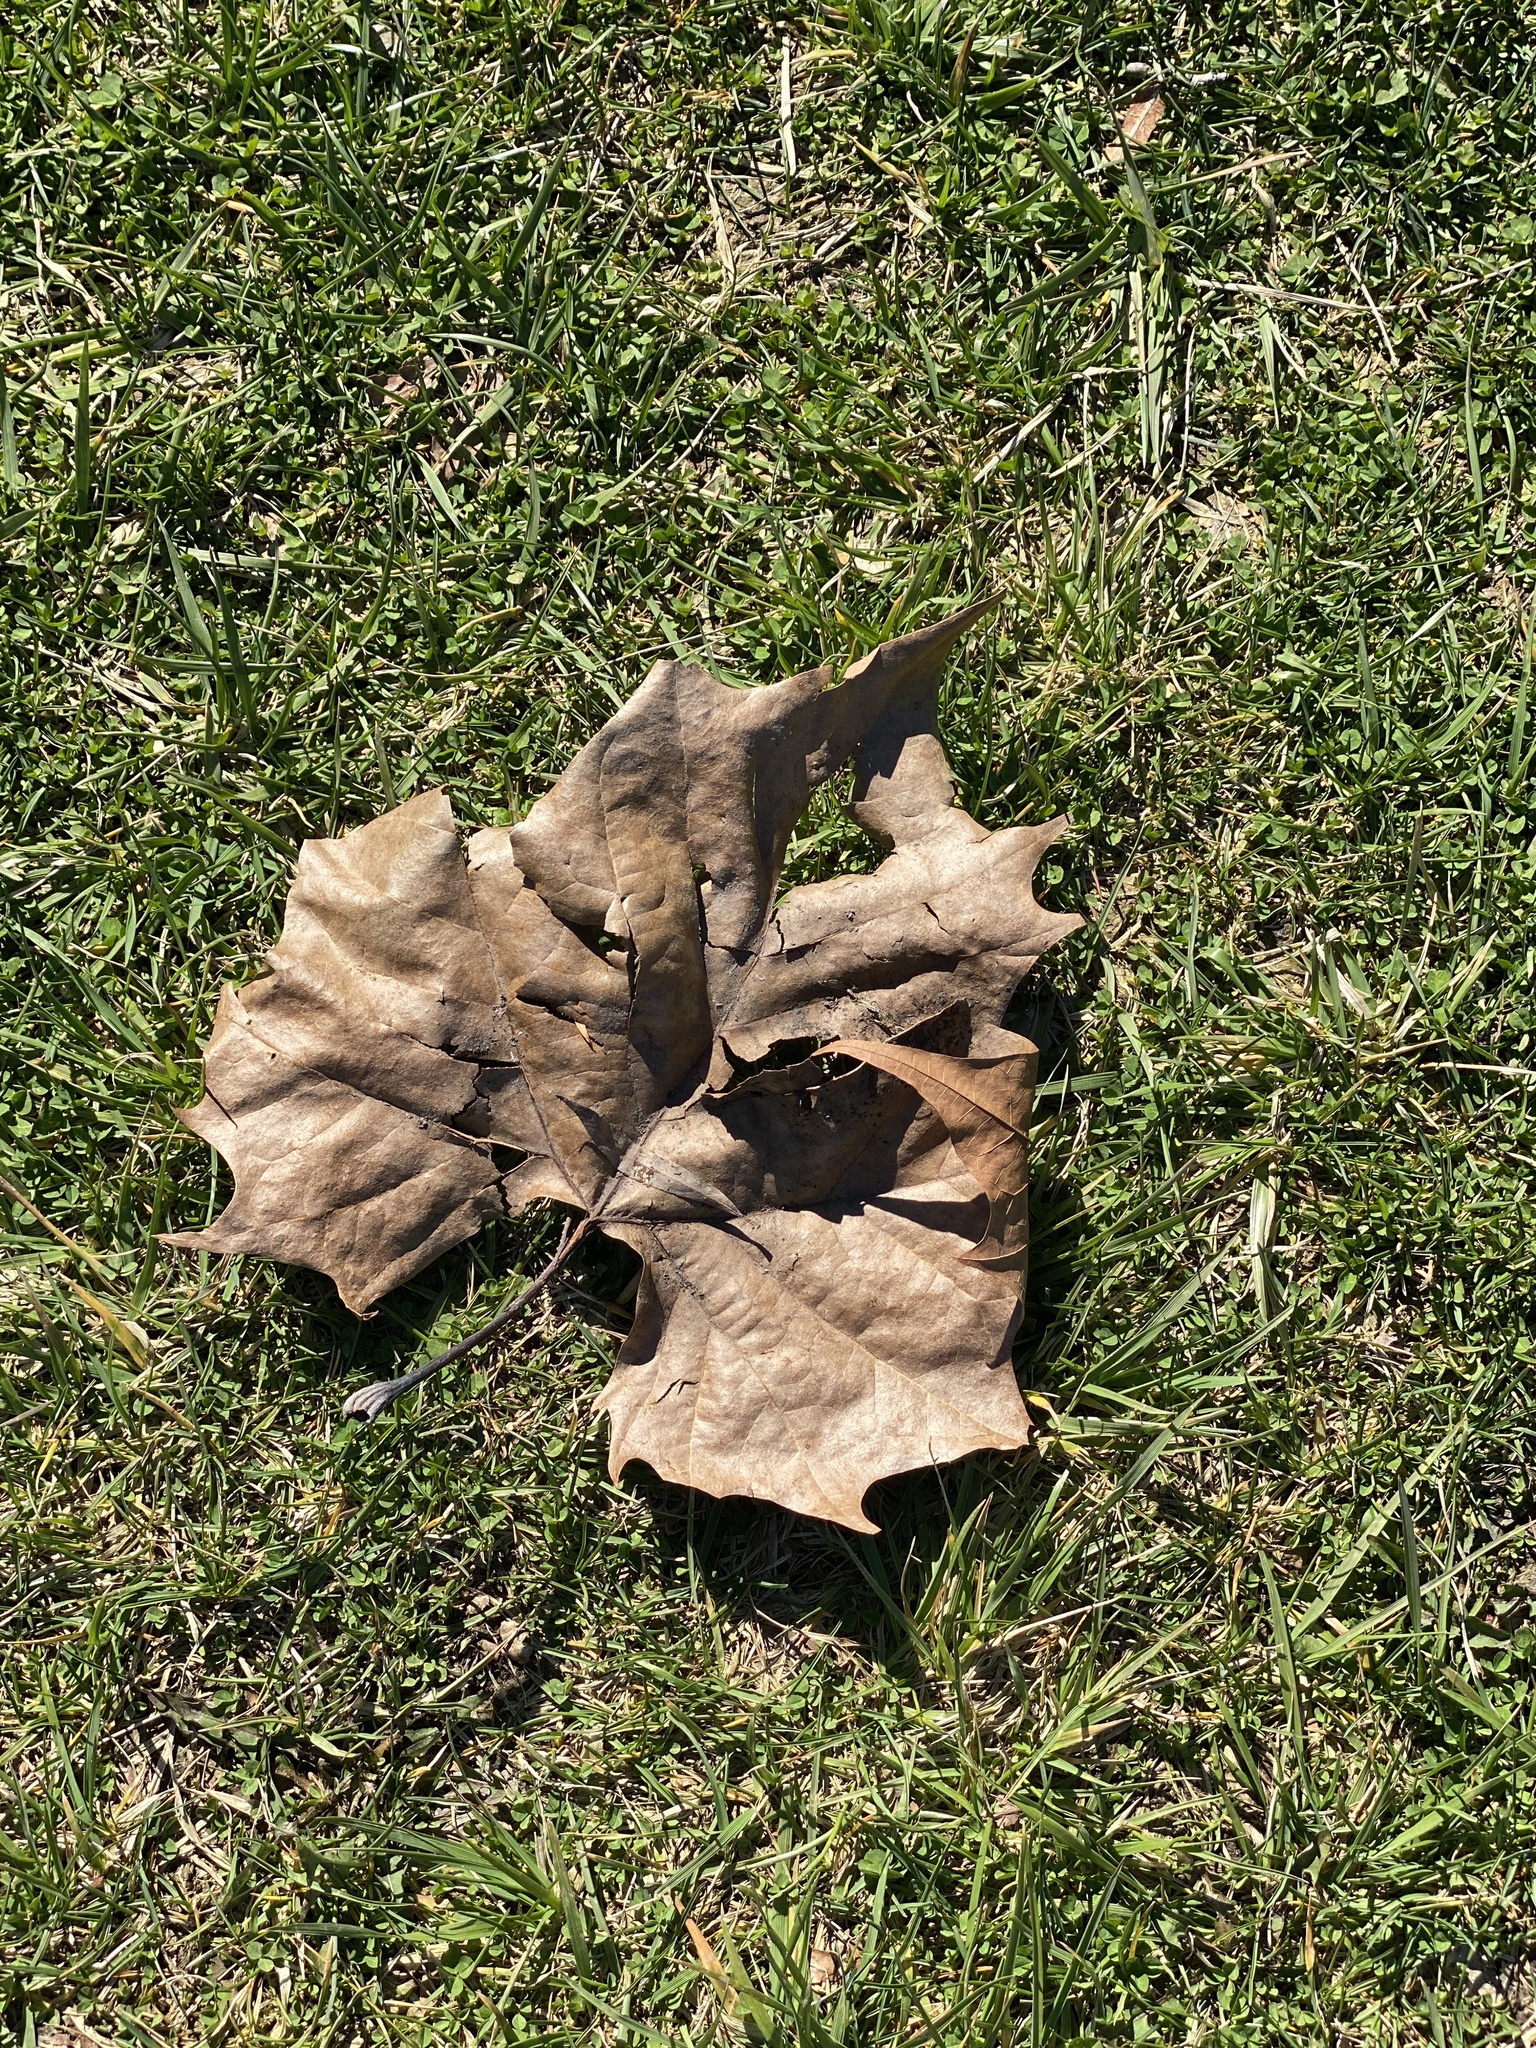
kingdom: Plantae
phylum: Tracheophyta
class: Magnoliopsida
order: Proteales
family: Platanaceae
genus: Platanus
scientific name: Platanus occidentalis
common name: American sycamore
